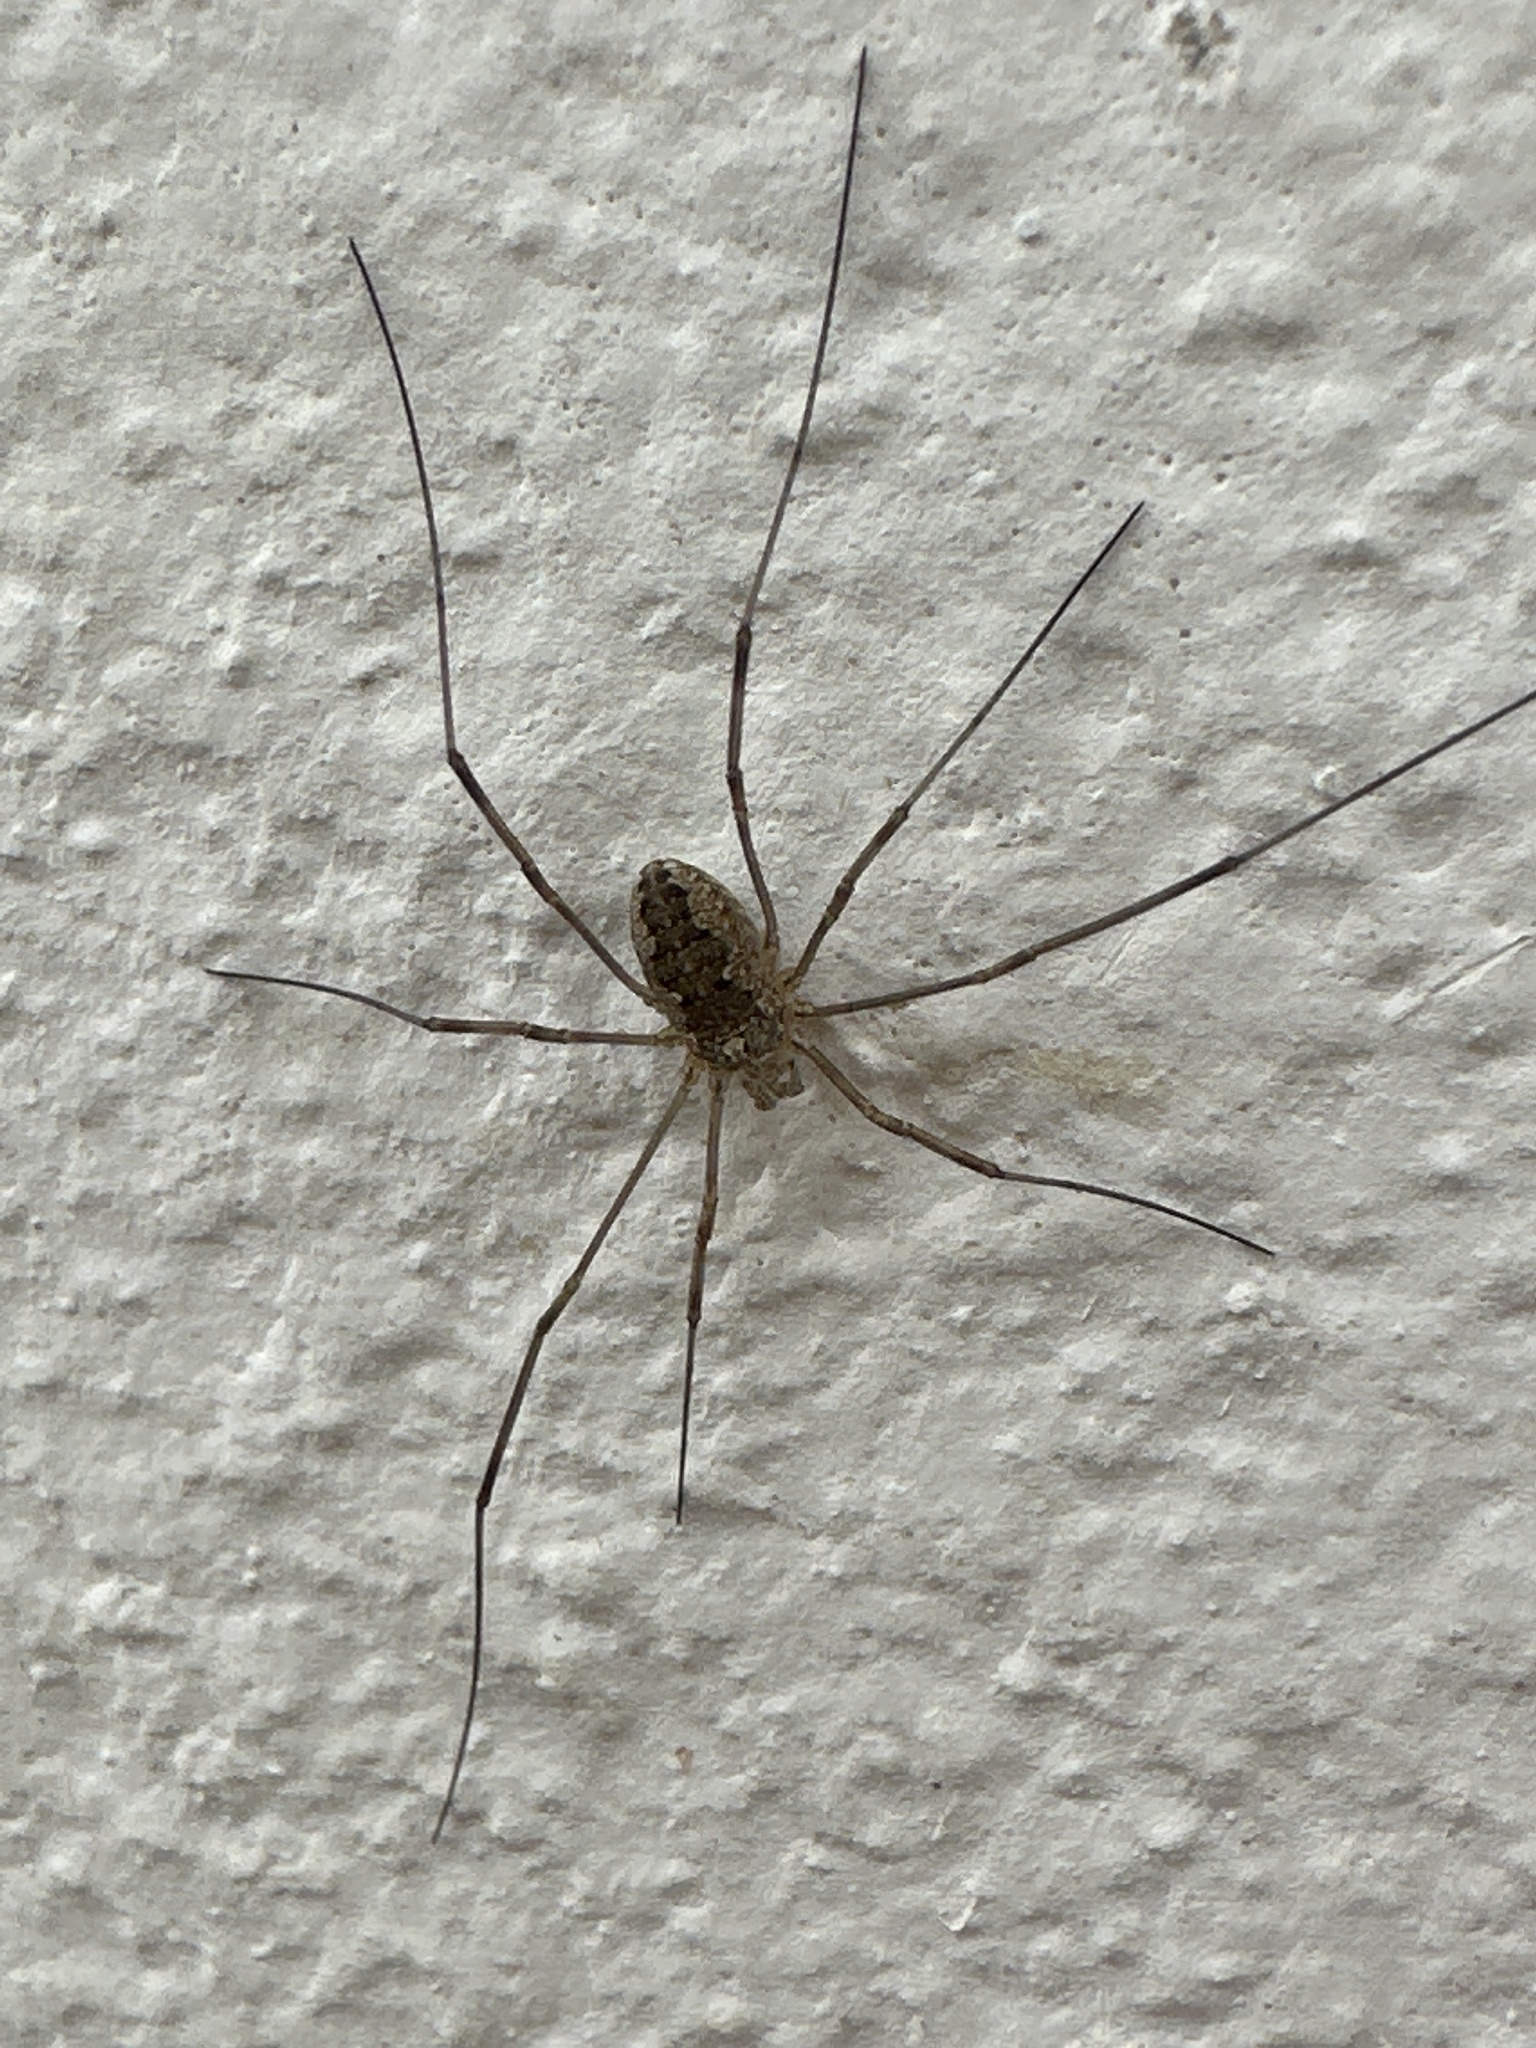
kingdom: Animalia
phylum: Arthropoda
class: Arachnida
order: Opiliones
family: Phalangiidae
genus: Phalangium
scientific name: Phalangium opilio
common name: Daddy longleg
